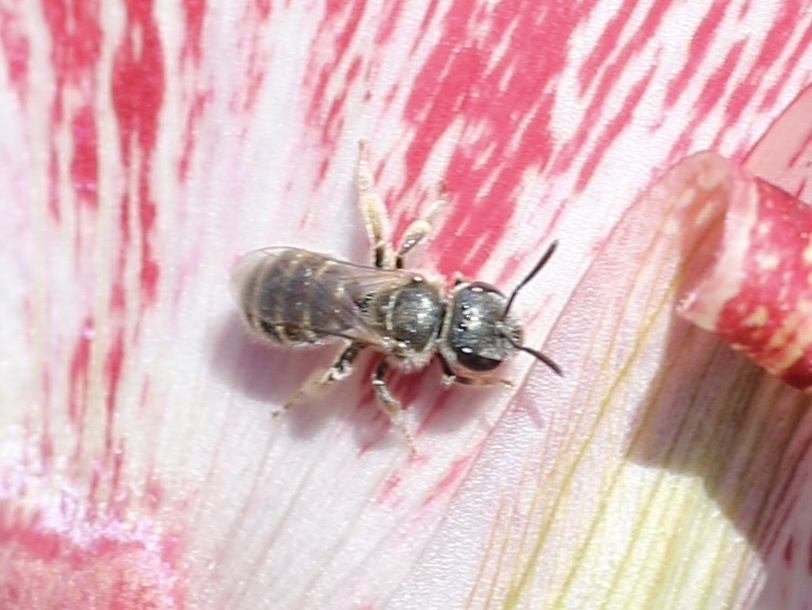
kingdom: Animalia
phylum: Arthropoda
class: Insecta
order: Hymenoptera
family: Halictidae
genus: Halictus
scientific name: Halictus tripartitus
